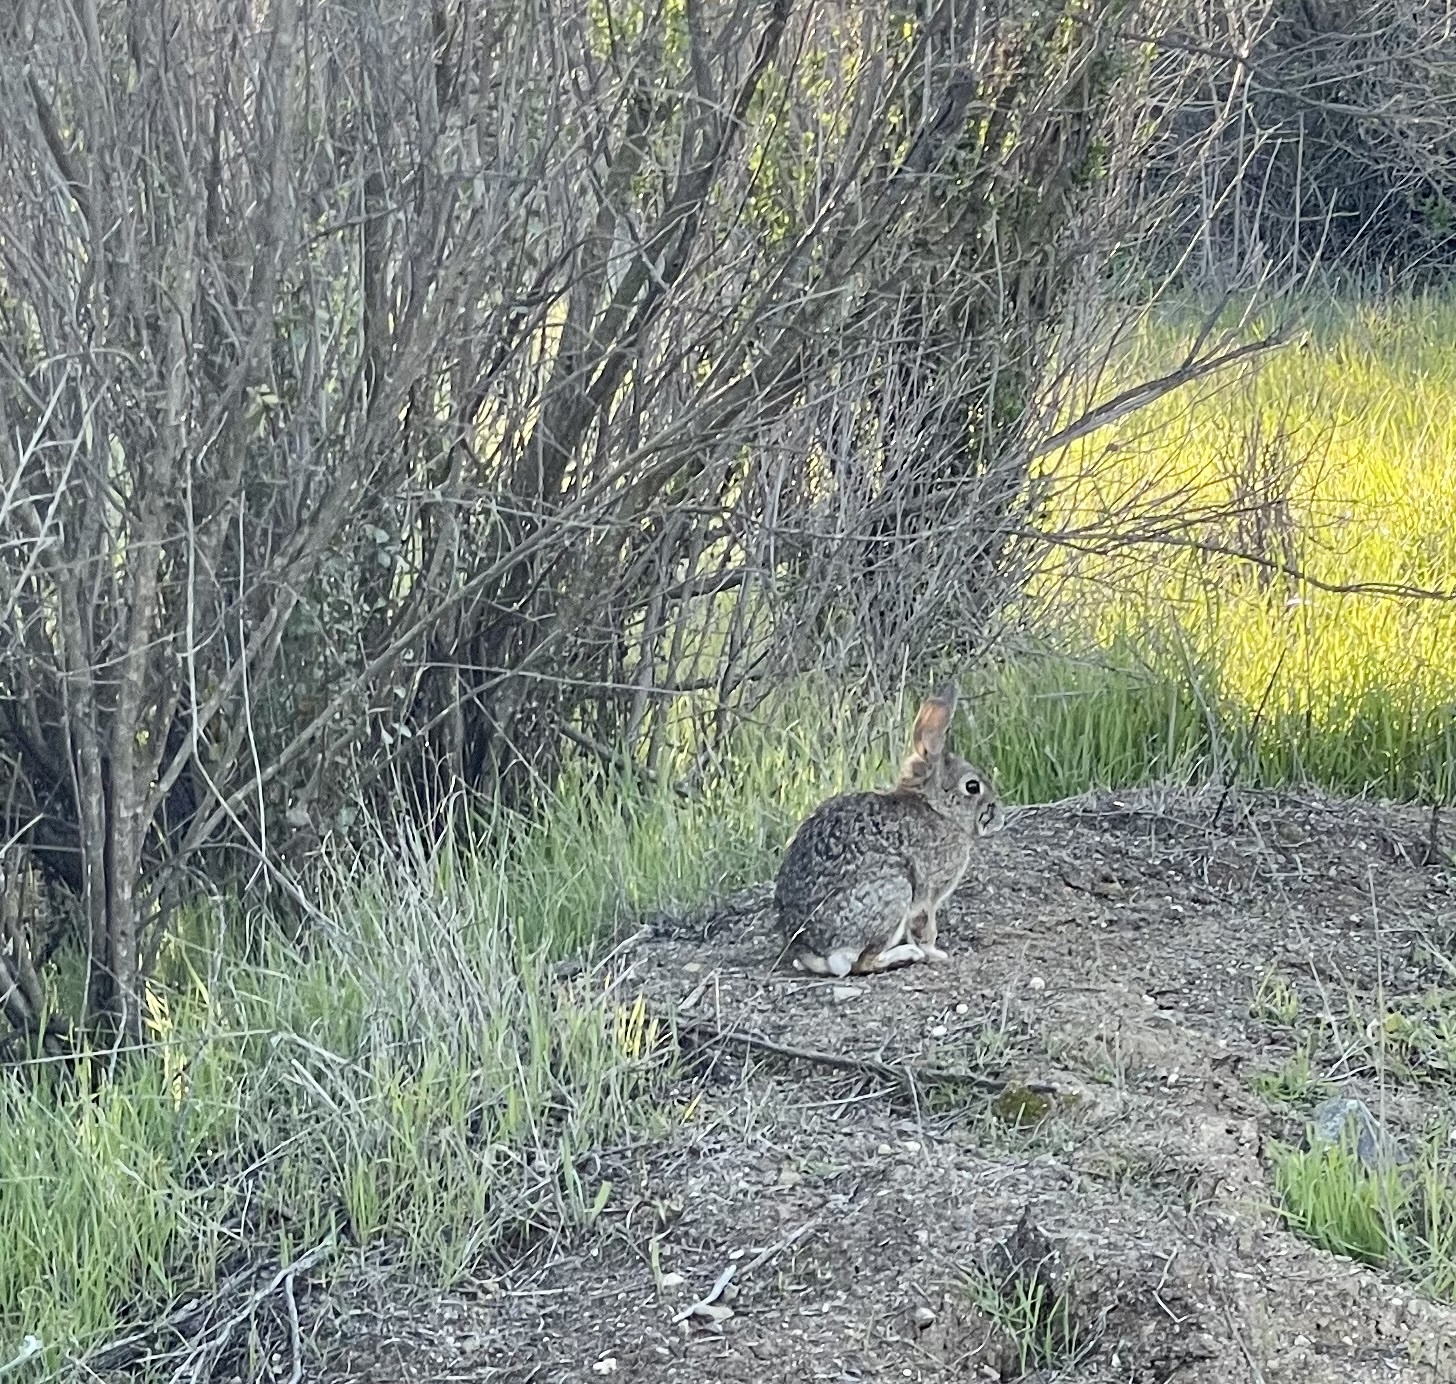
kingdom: Animalia
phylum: Chordata
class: Mammalia
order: Lagomorpha
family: Leporidae
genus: Sylvilagus
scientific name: Sylvilagus bachmani
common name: Brush rabbit
